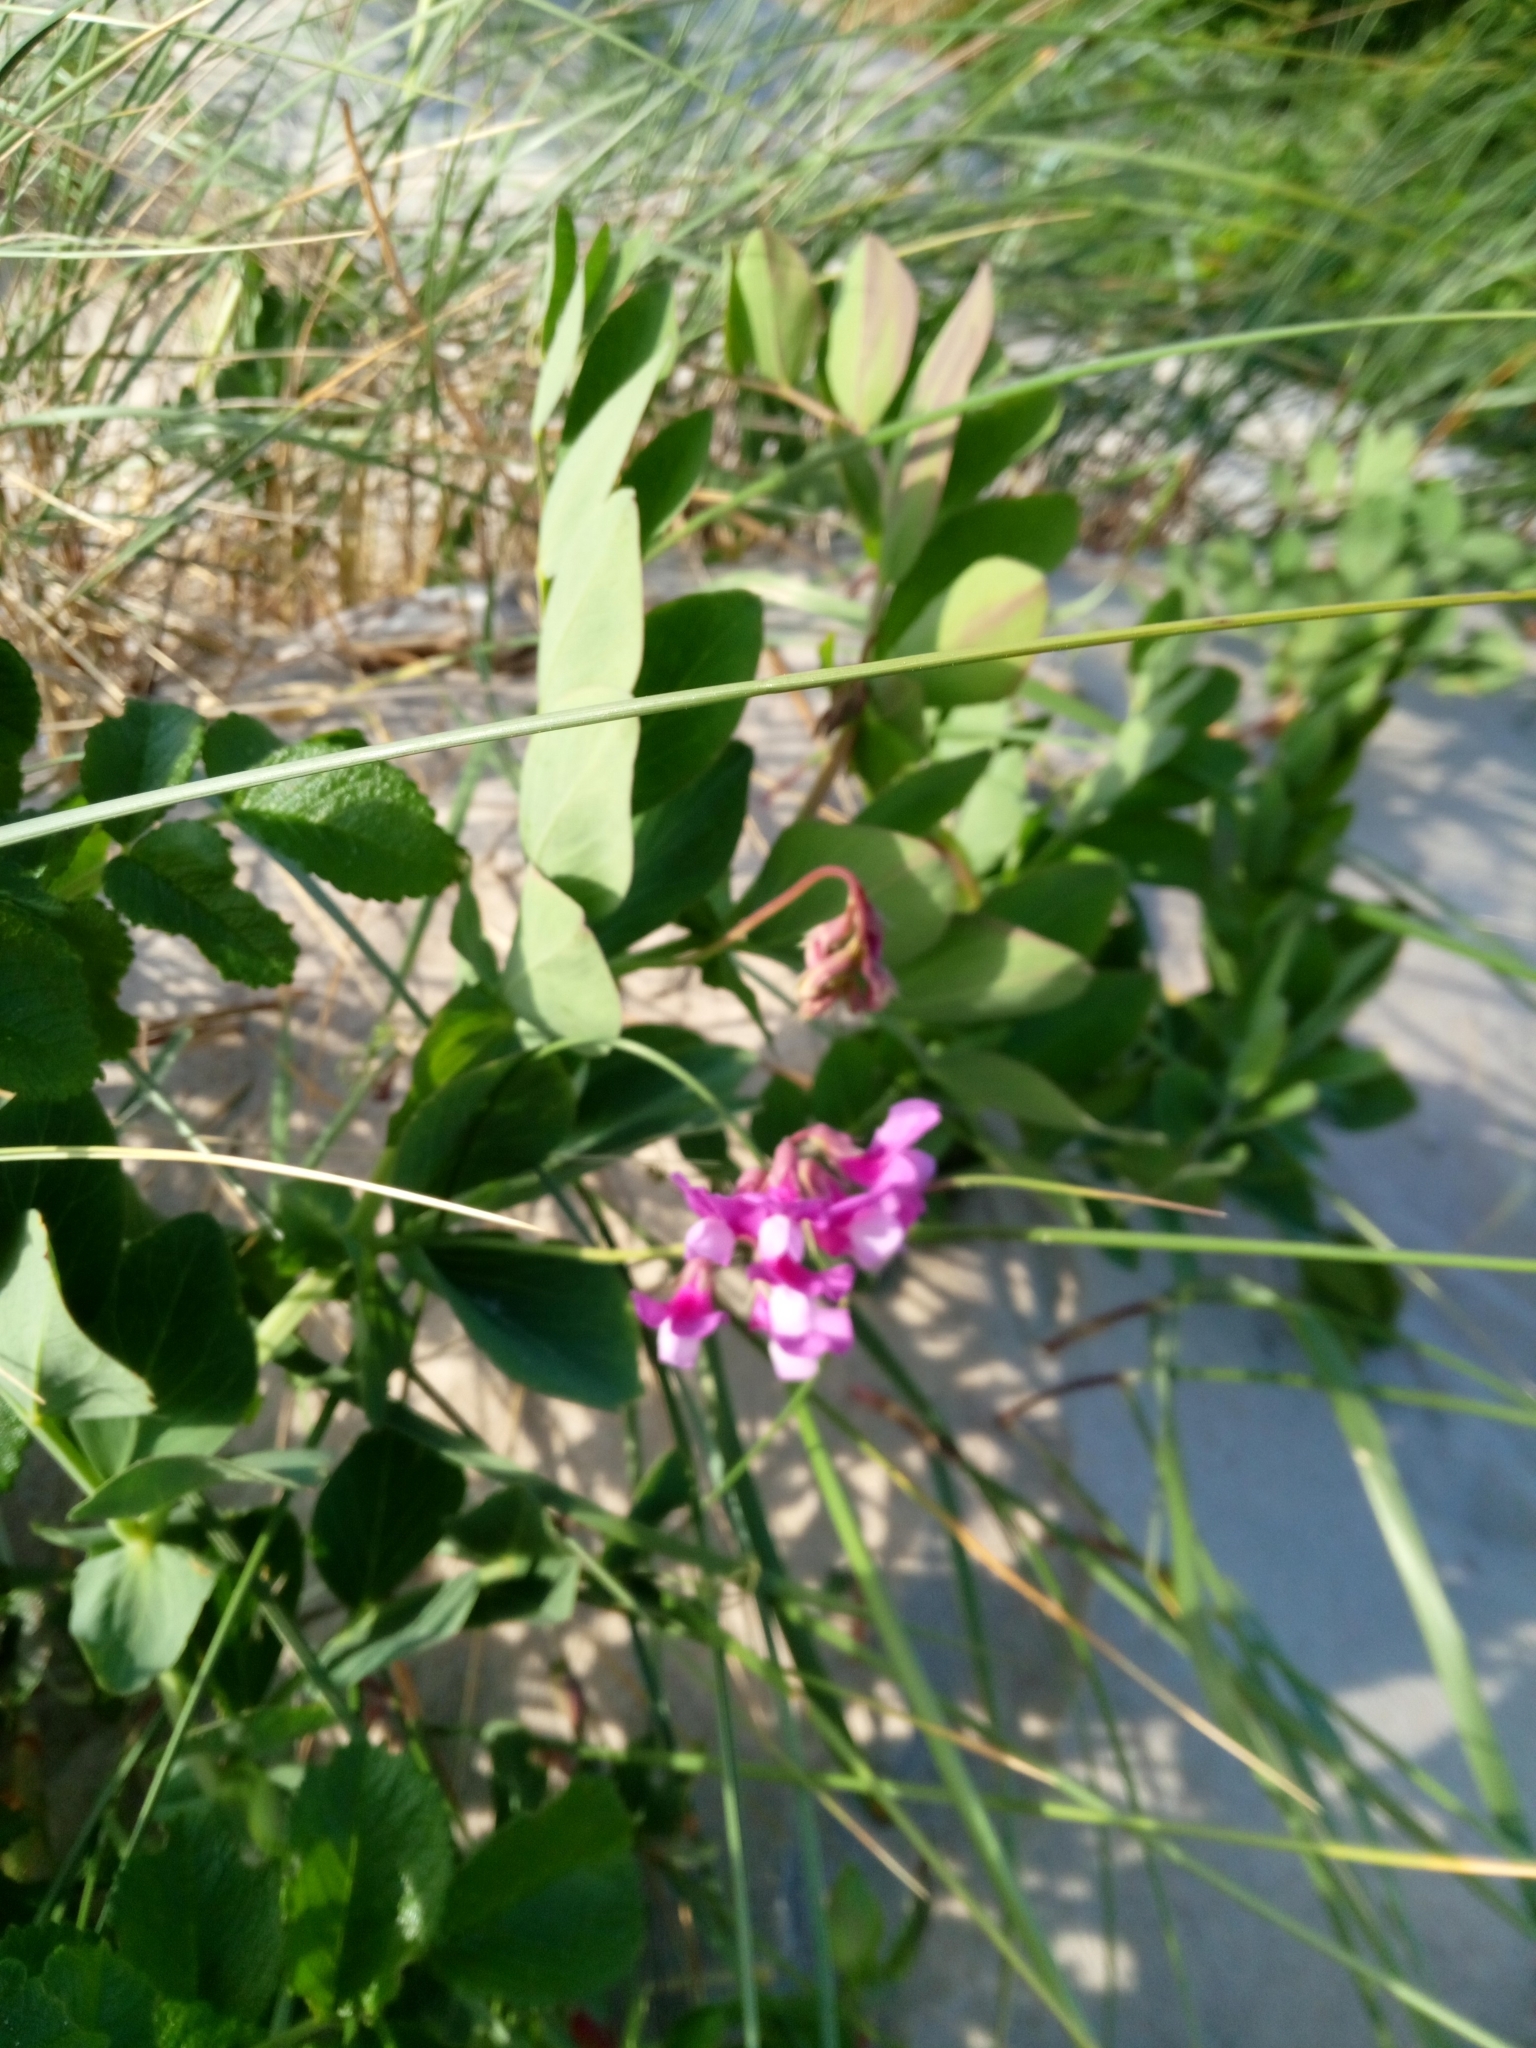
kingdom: Plantae
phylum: Tracheophyta
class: Magnoliopsida
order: Fabales
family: Fabaceae
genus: Lathyrus
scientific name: Lathyrus japonicus
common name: Sea pea
